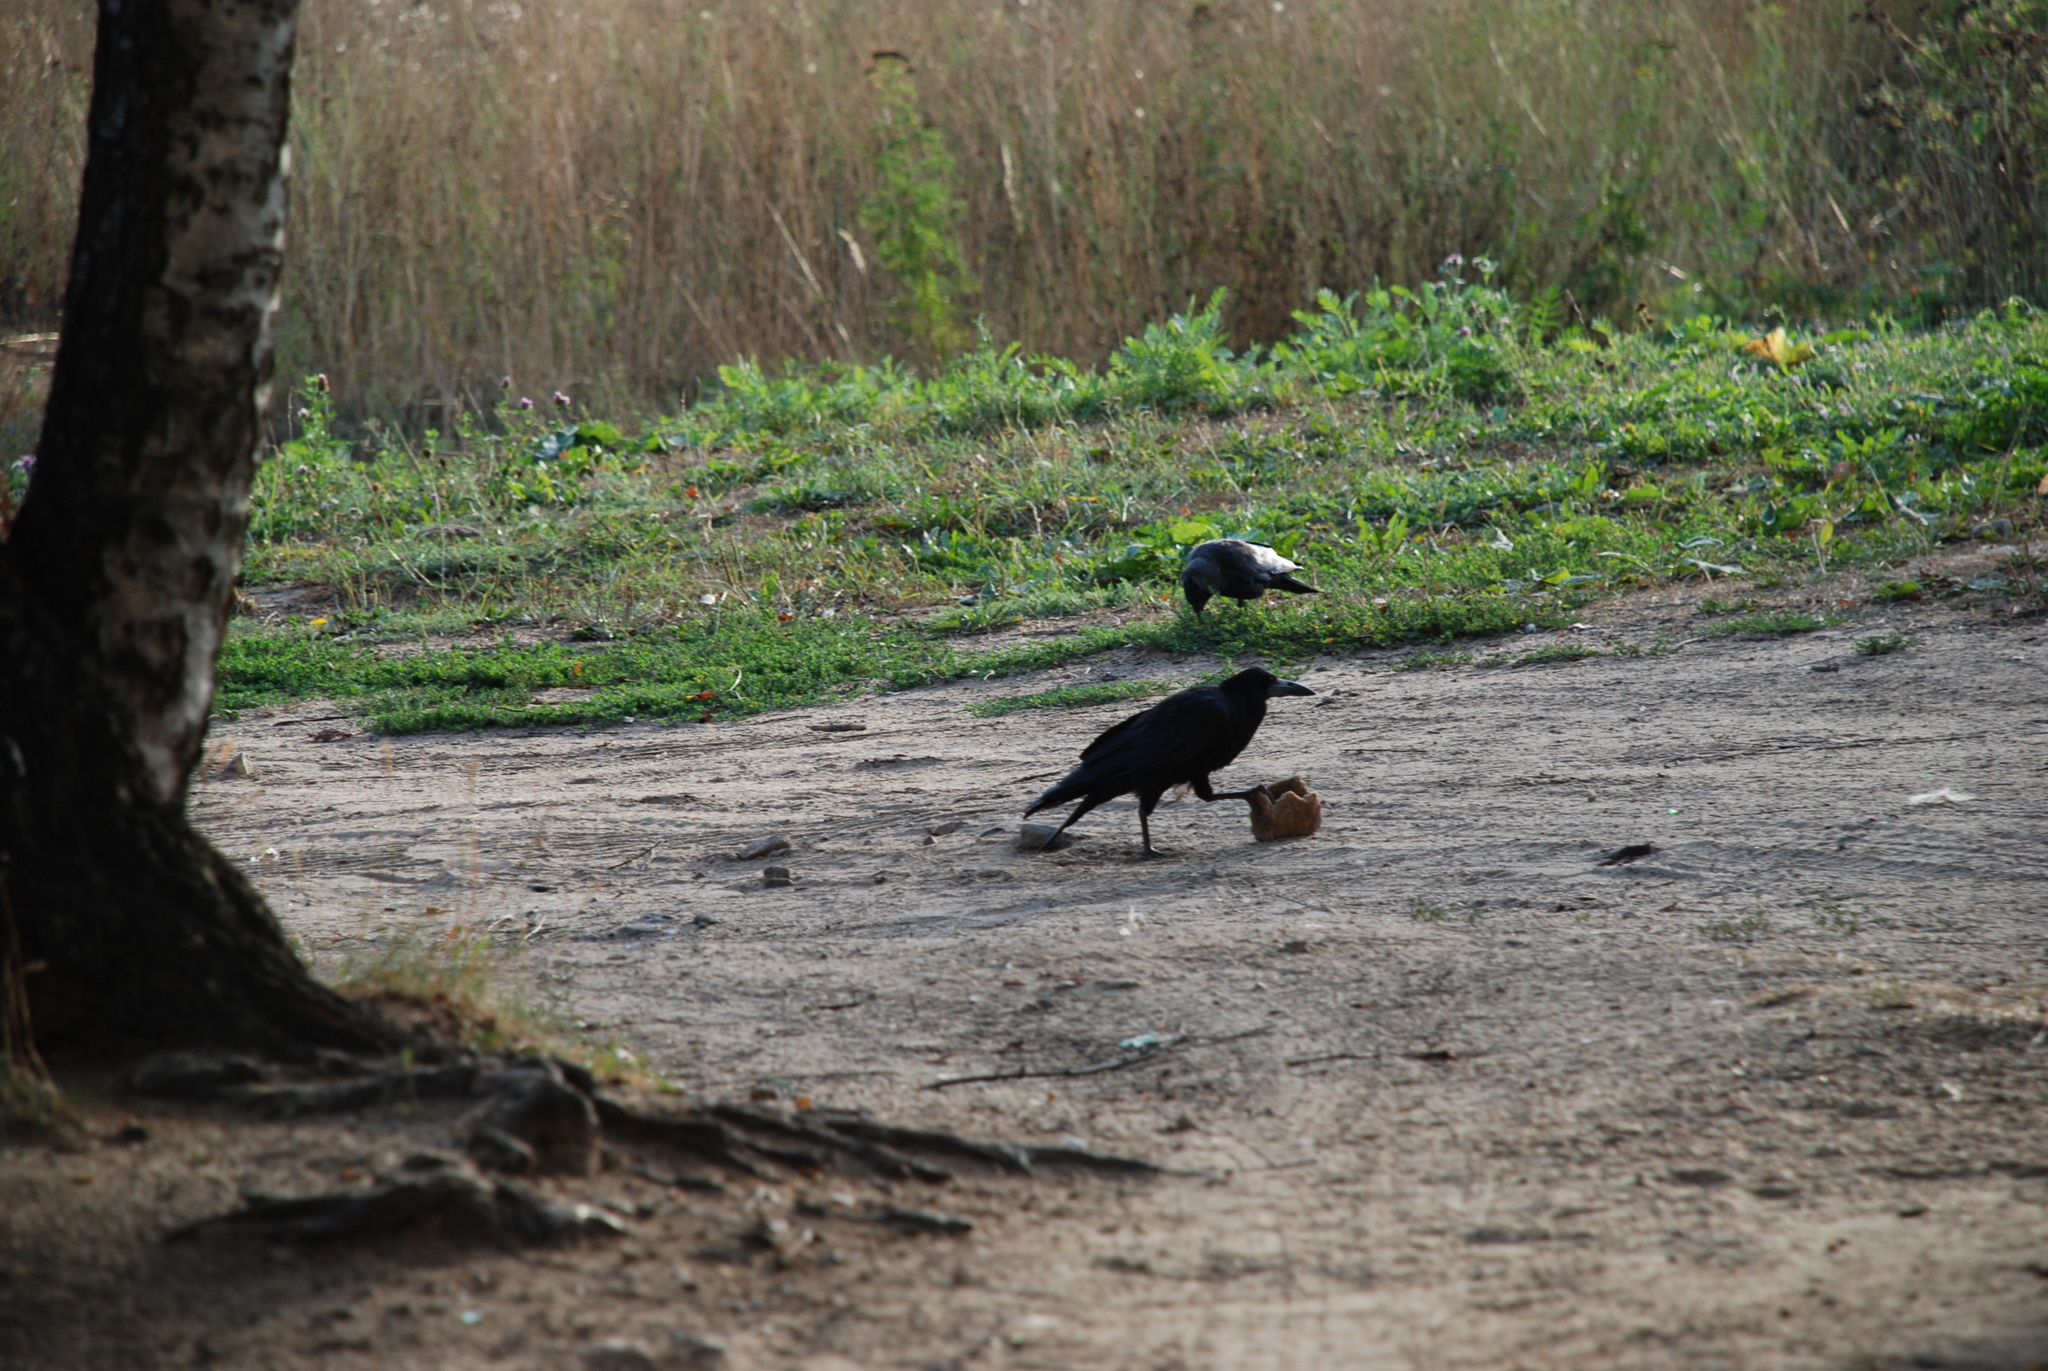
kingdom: Animalia
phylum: Chordata
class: Aves
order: Passeriformes
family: Corvidae
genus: Corvus
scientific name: Corvus frugilegus
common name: Rook
